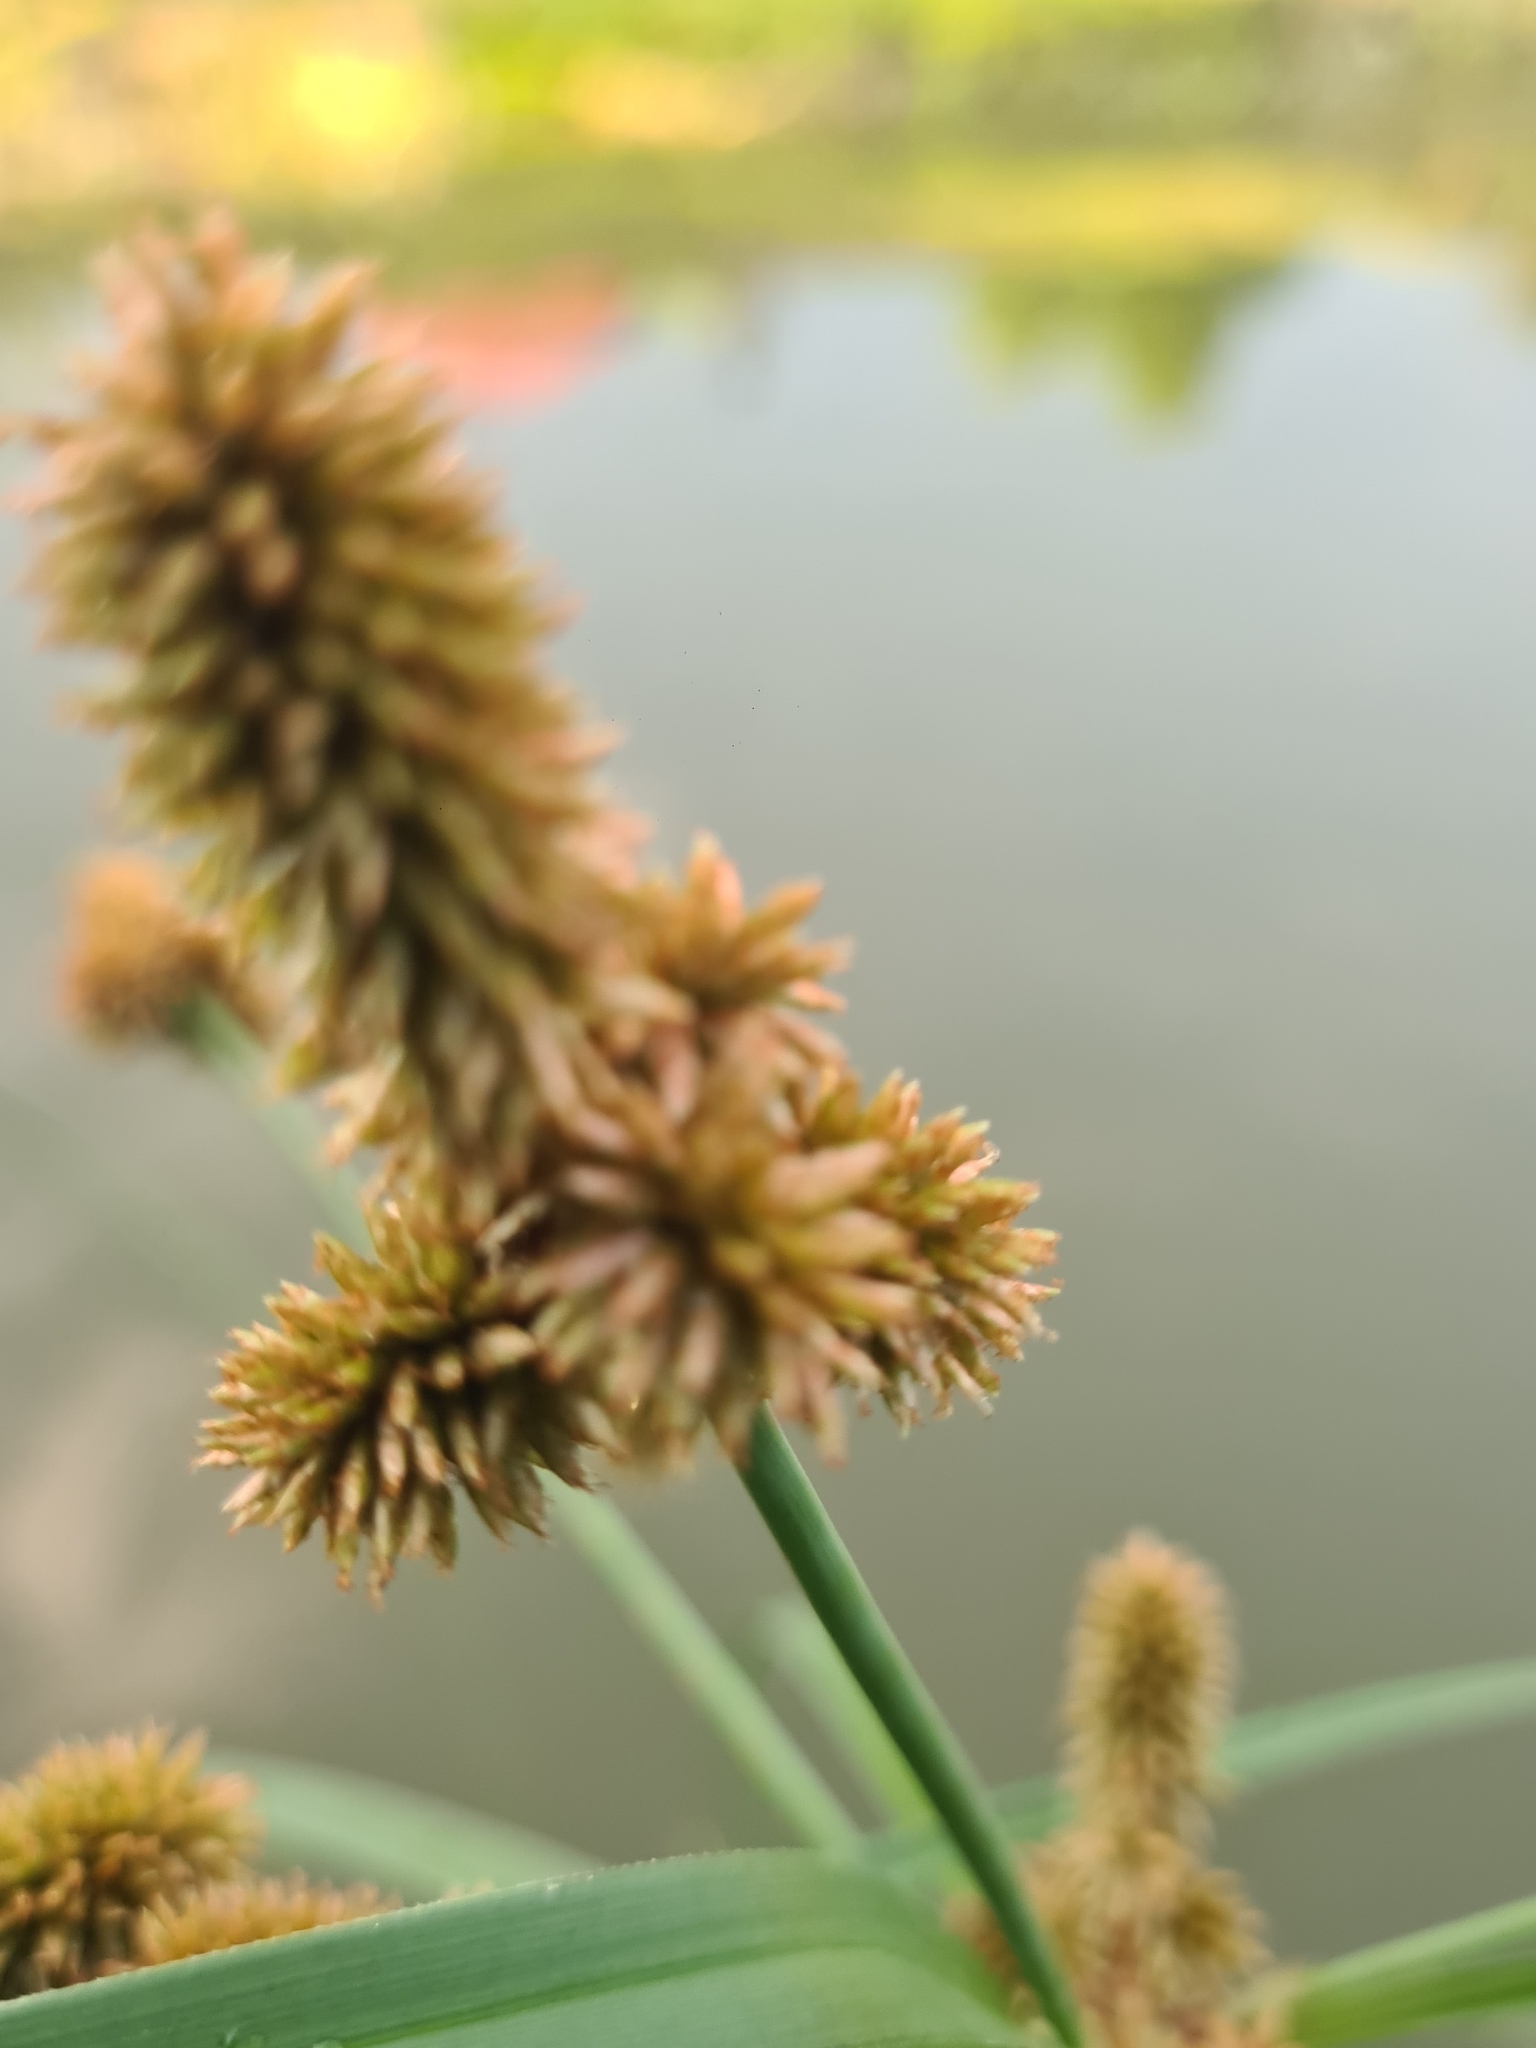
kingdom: Plantae
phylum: Tracheophyta
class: Liliopsida
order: Poales
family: Cyperaceae
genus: Cyperus
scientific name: Cyperus ligularis
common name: Swamp flat sedge
